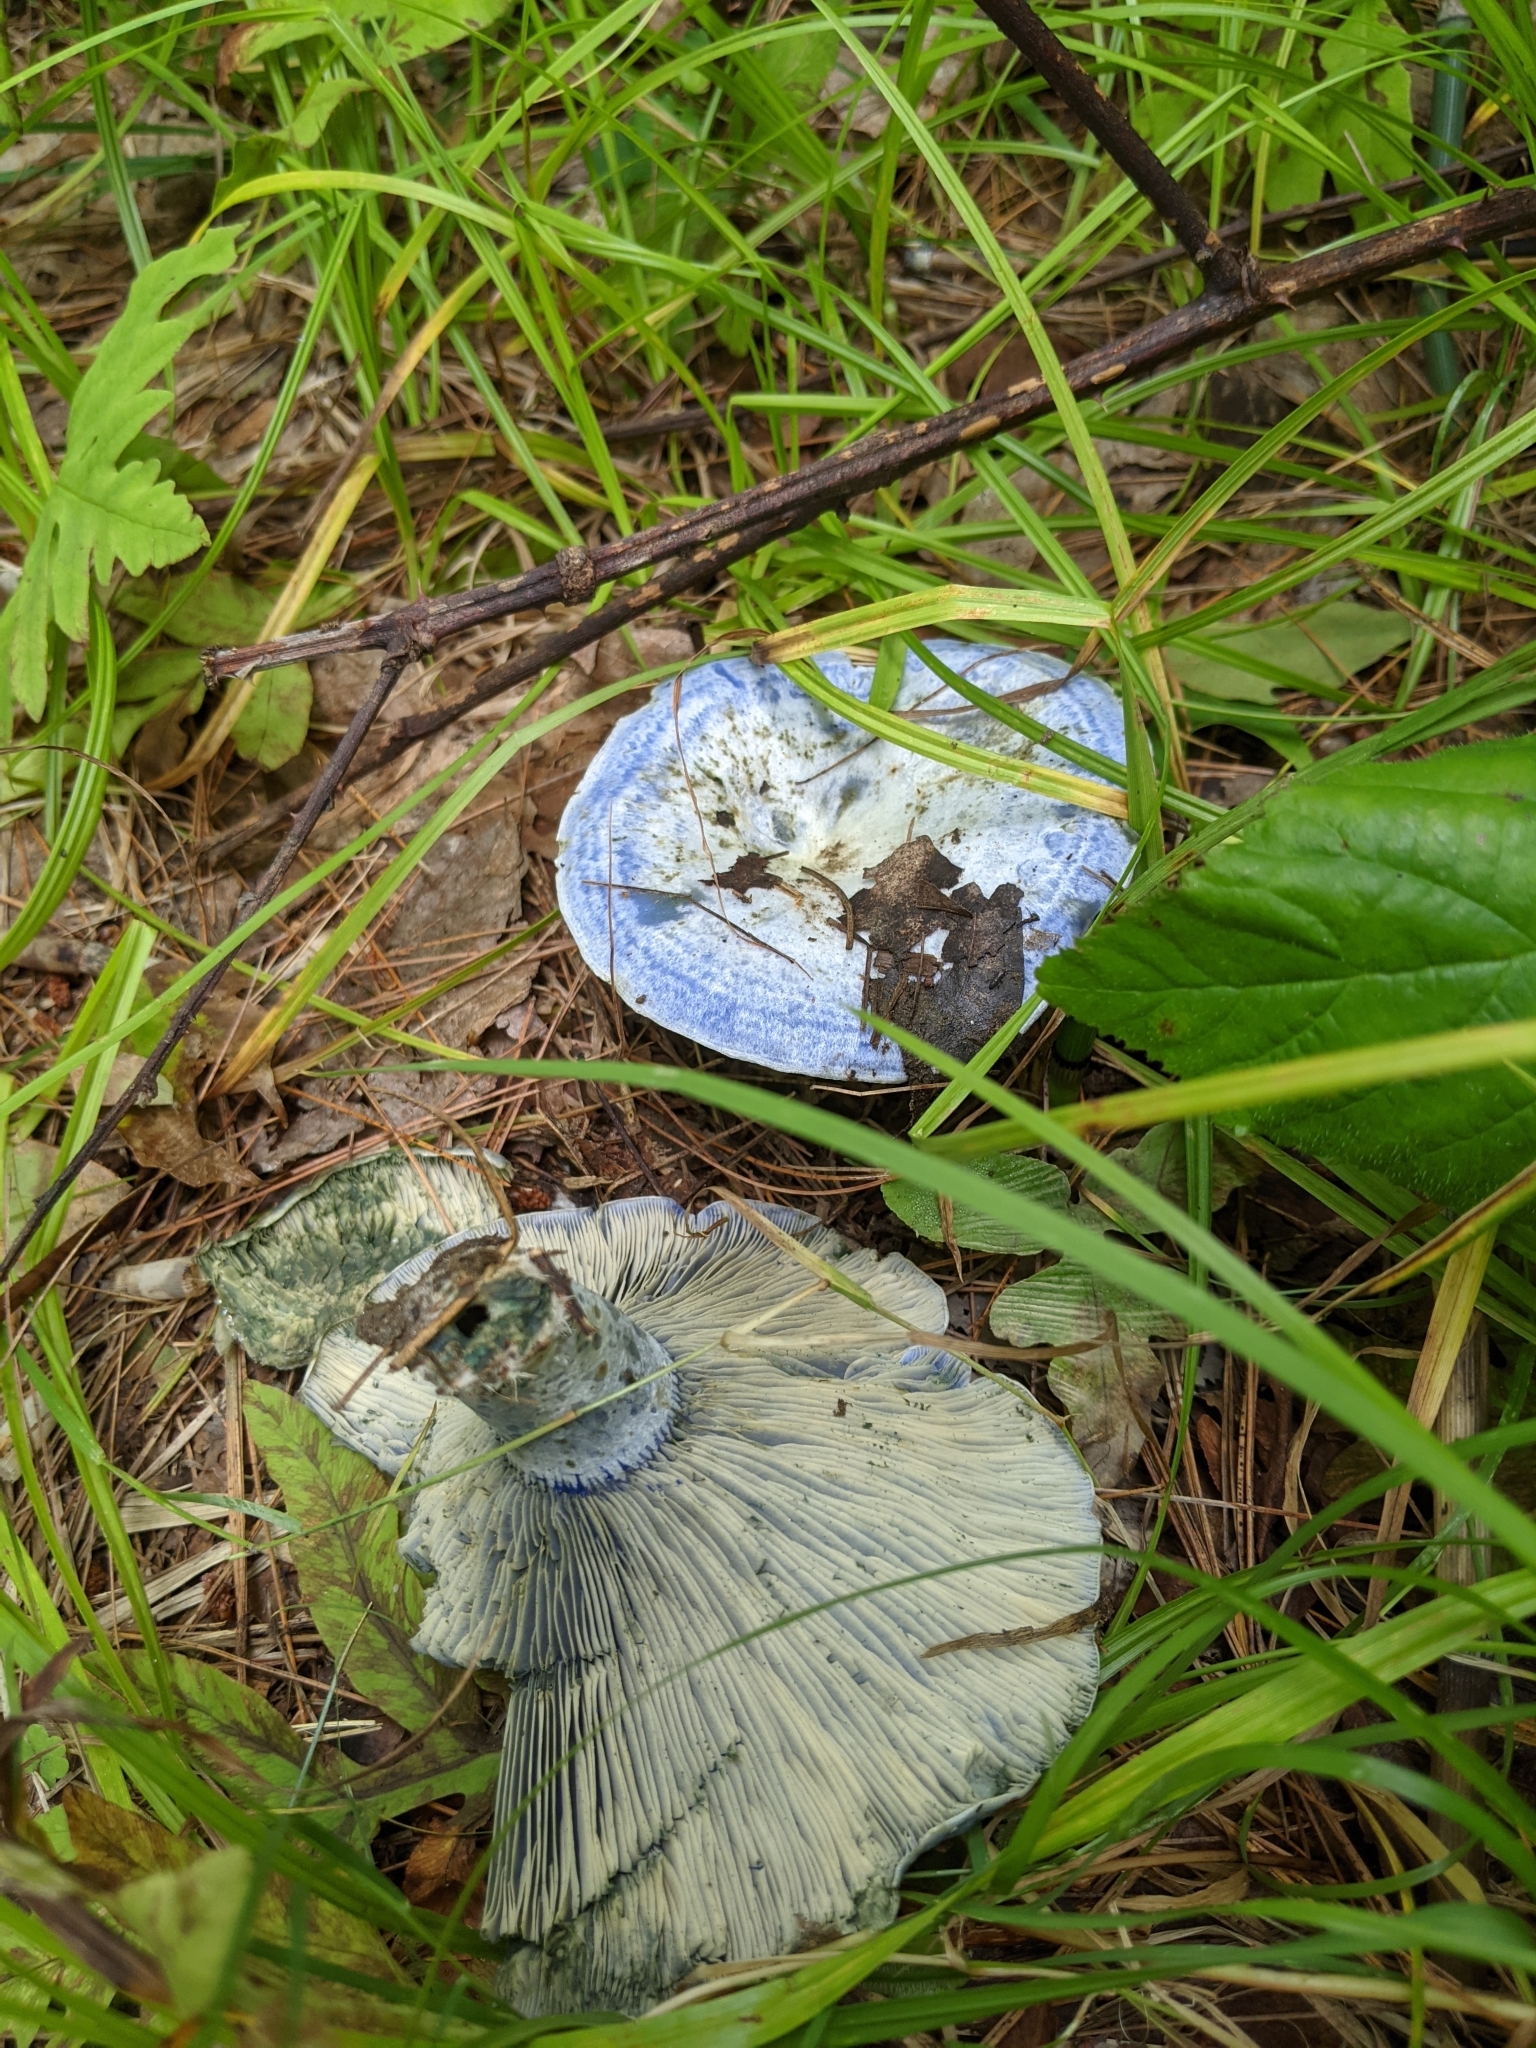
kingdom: Fungi
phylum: Basidiomycota
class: Agaricomycetes
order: Russulales
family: Russulaceae
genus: Lactarius
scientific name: Lactarius indigo
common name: Indigo milk cap
